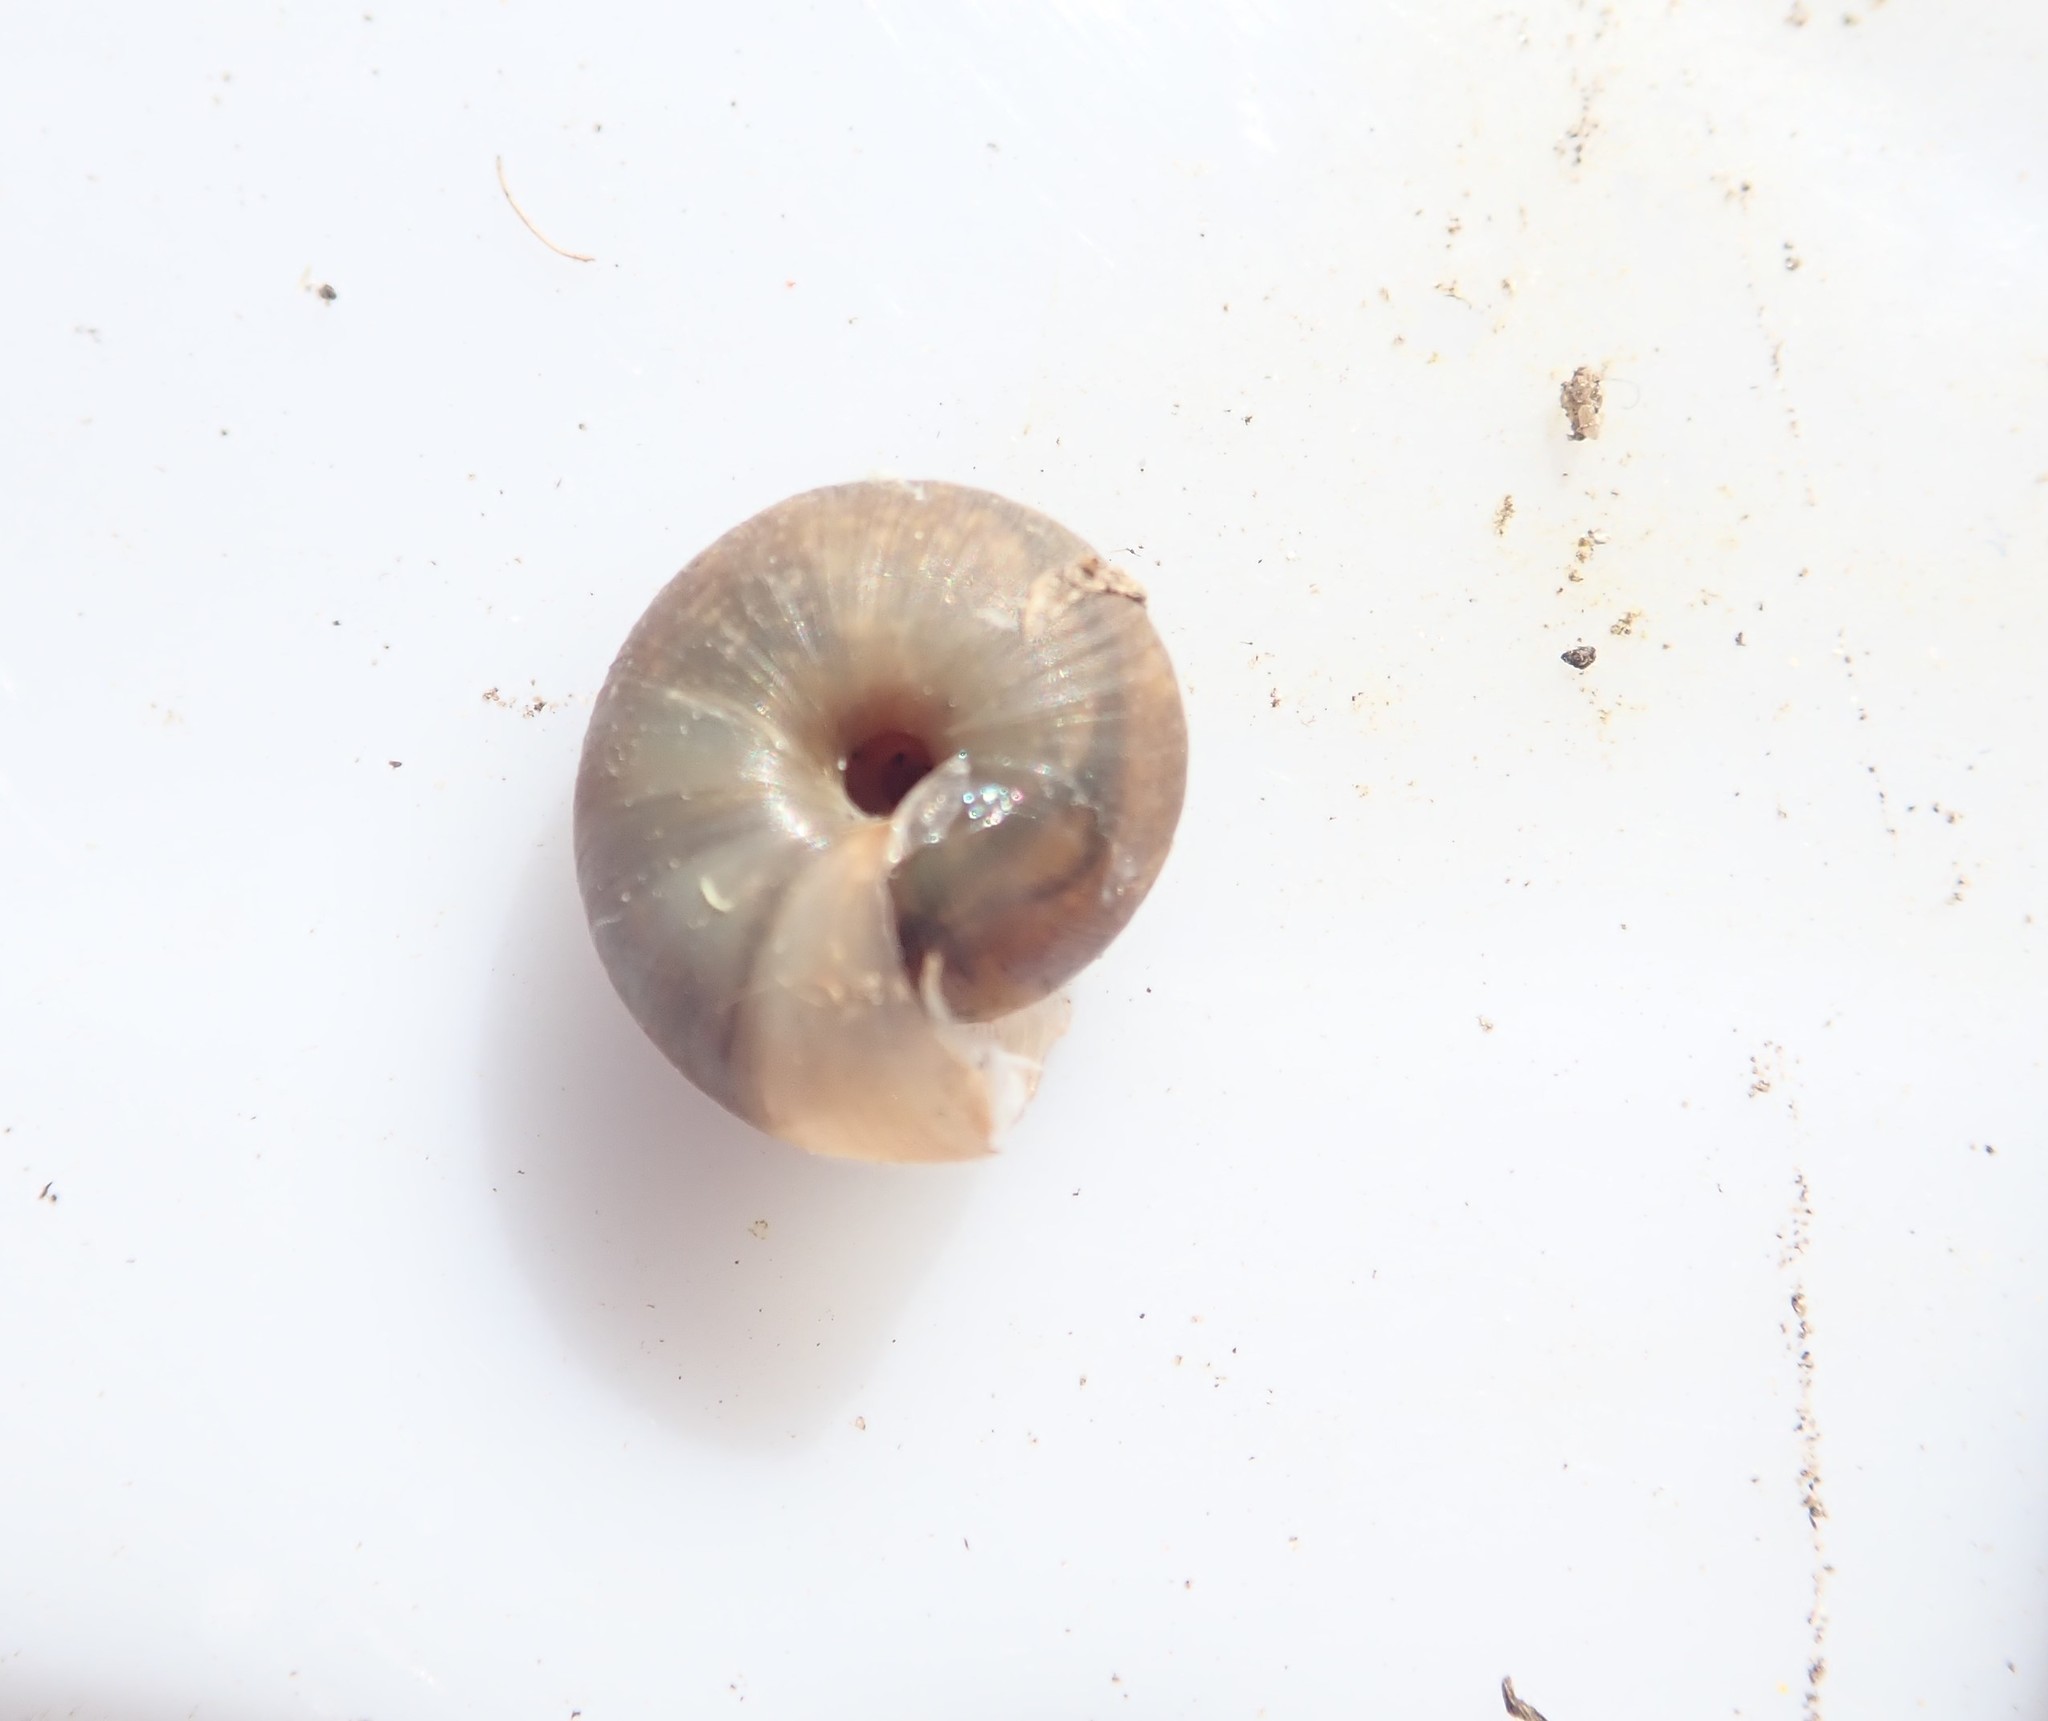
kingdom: Animalia
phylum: Mollusca
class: Gastropoda
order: Stylommatophora
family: Hygromiidae
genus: Trochulus
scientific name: Trochulus striolatus
